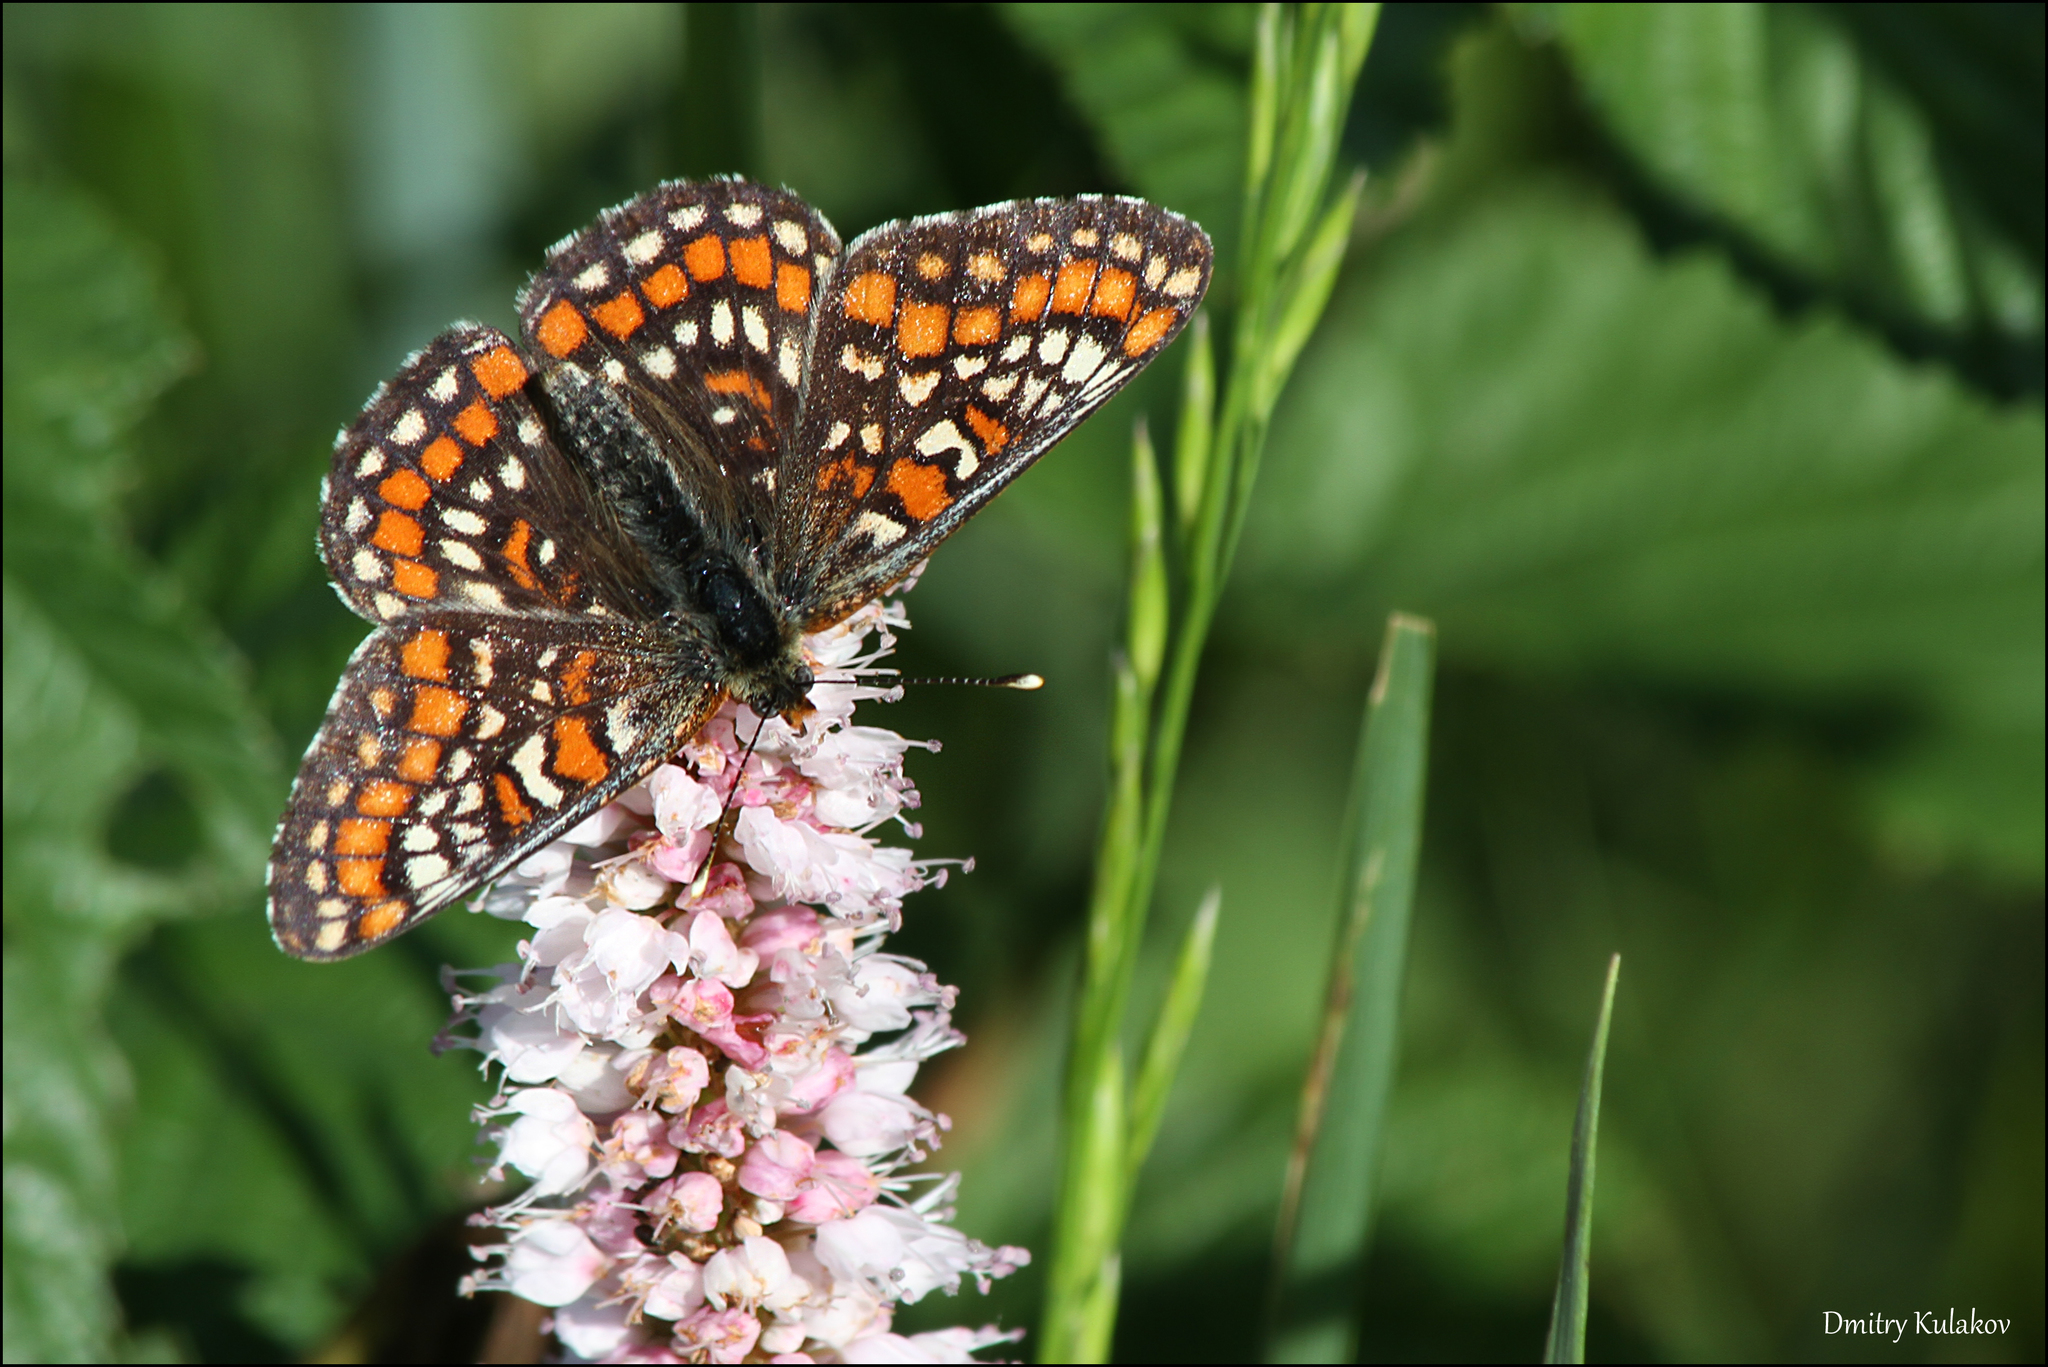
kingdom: Animalia
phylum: Arthropoda
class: Insecta
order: Lepidoptera
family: Nymphalidae
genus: Euphydryas
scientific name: Euphydryas maturna
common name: Scarce fritillary
